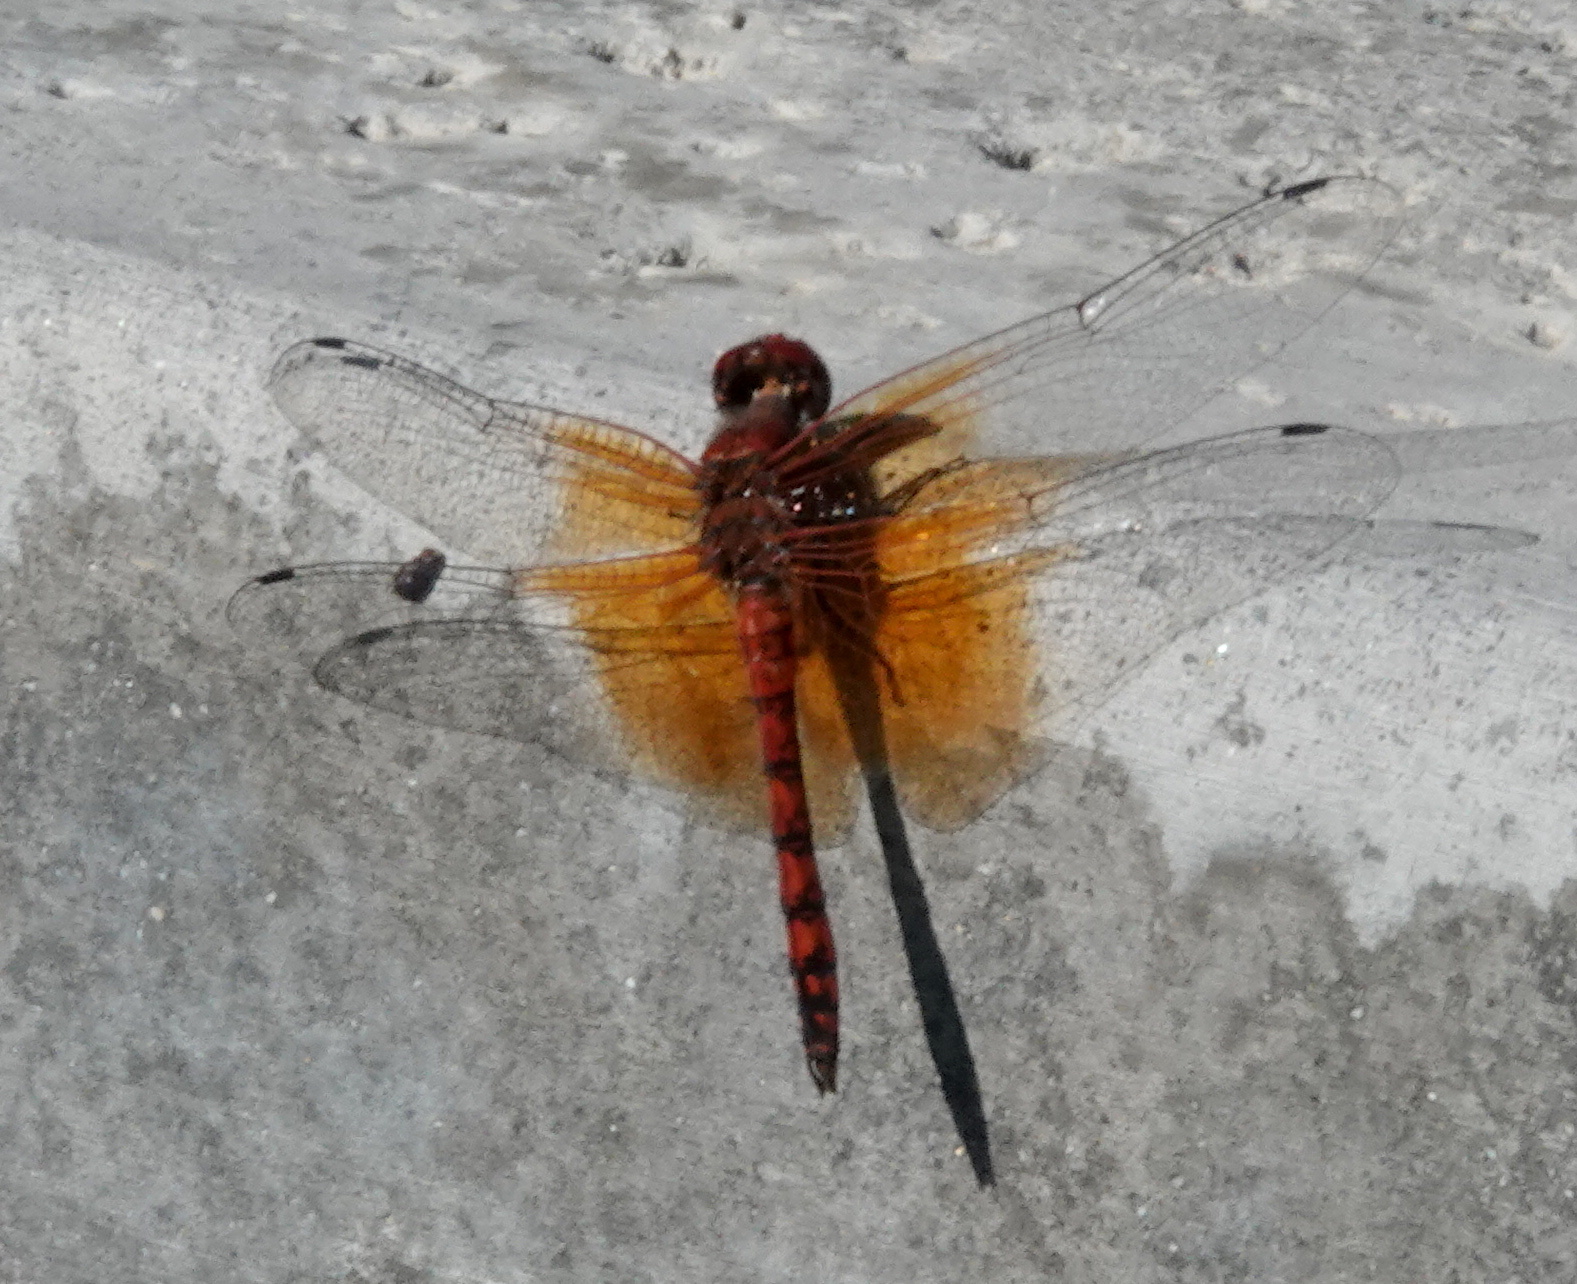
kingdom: Animalia
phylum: Arthropoda
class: Insecta
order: Odonata
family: Libellulidae
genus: Paltothemis
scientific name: Paltothemis lineatipes
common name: Red rock skimmer
